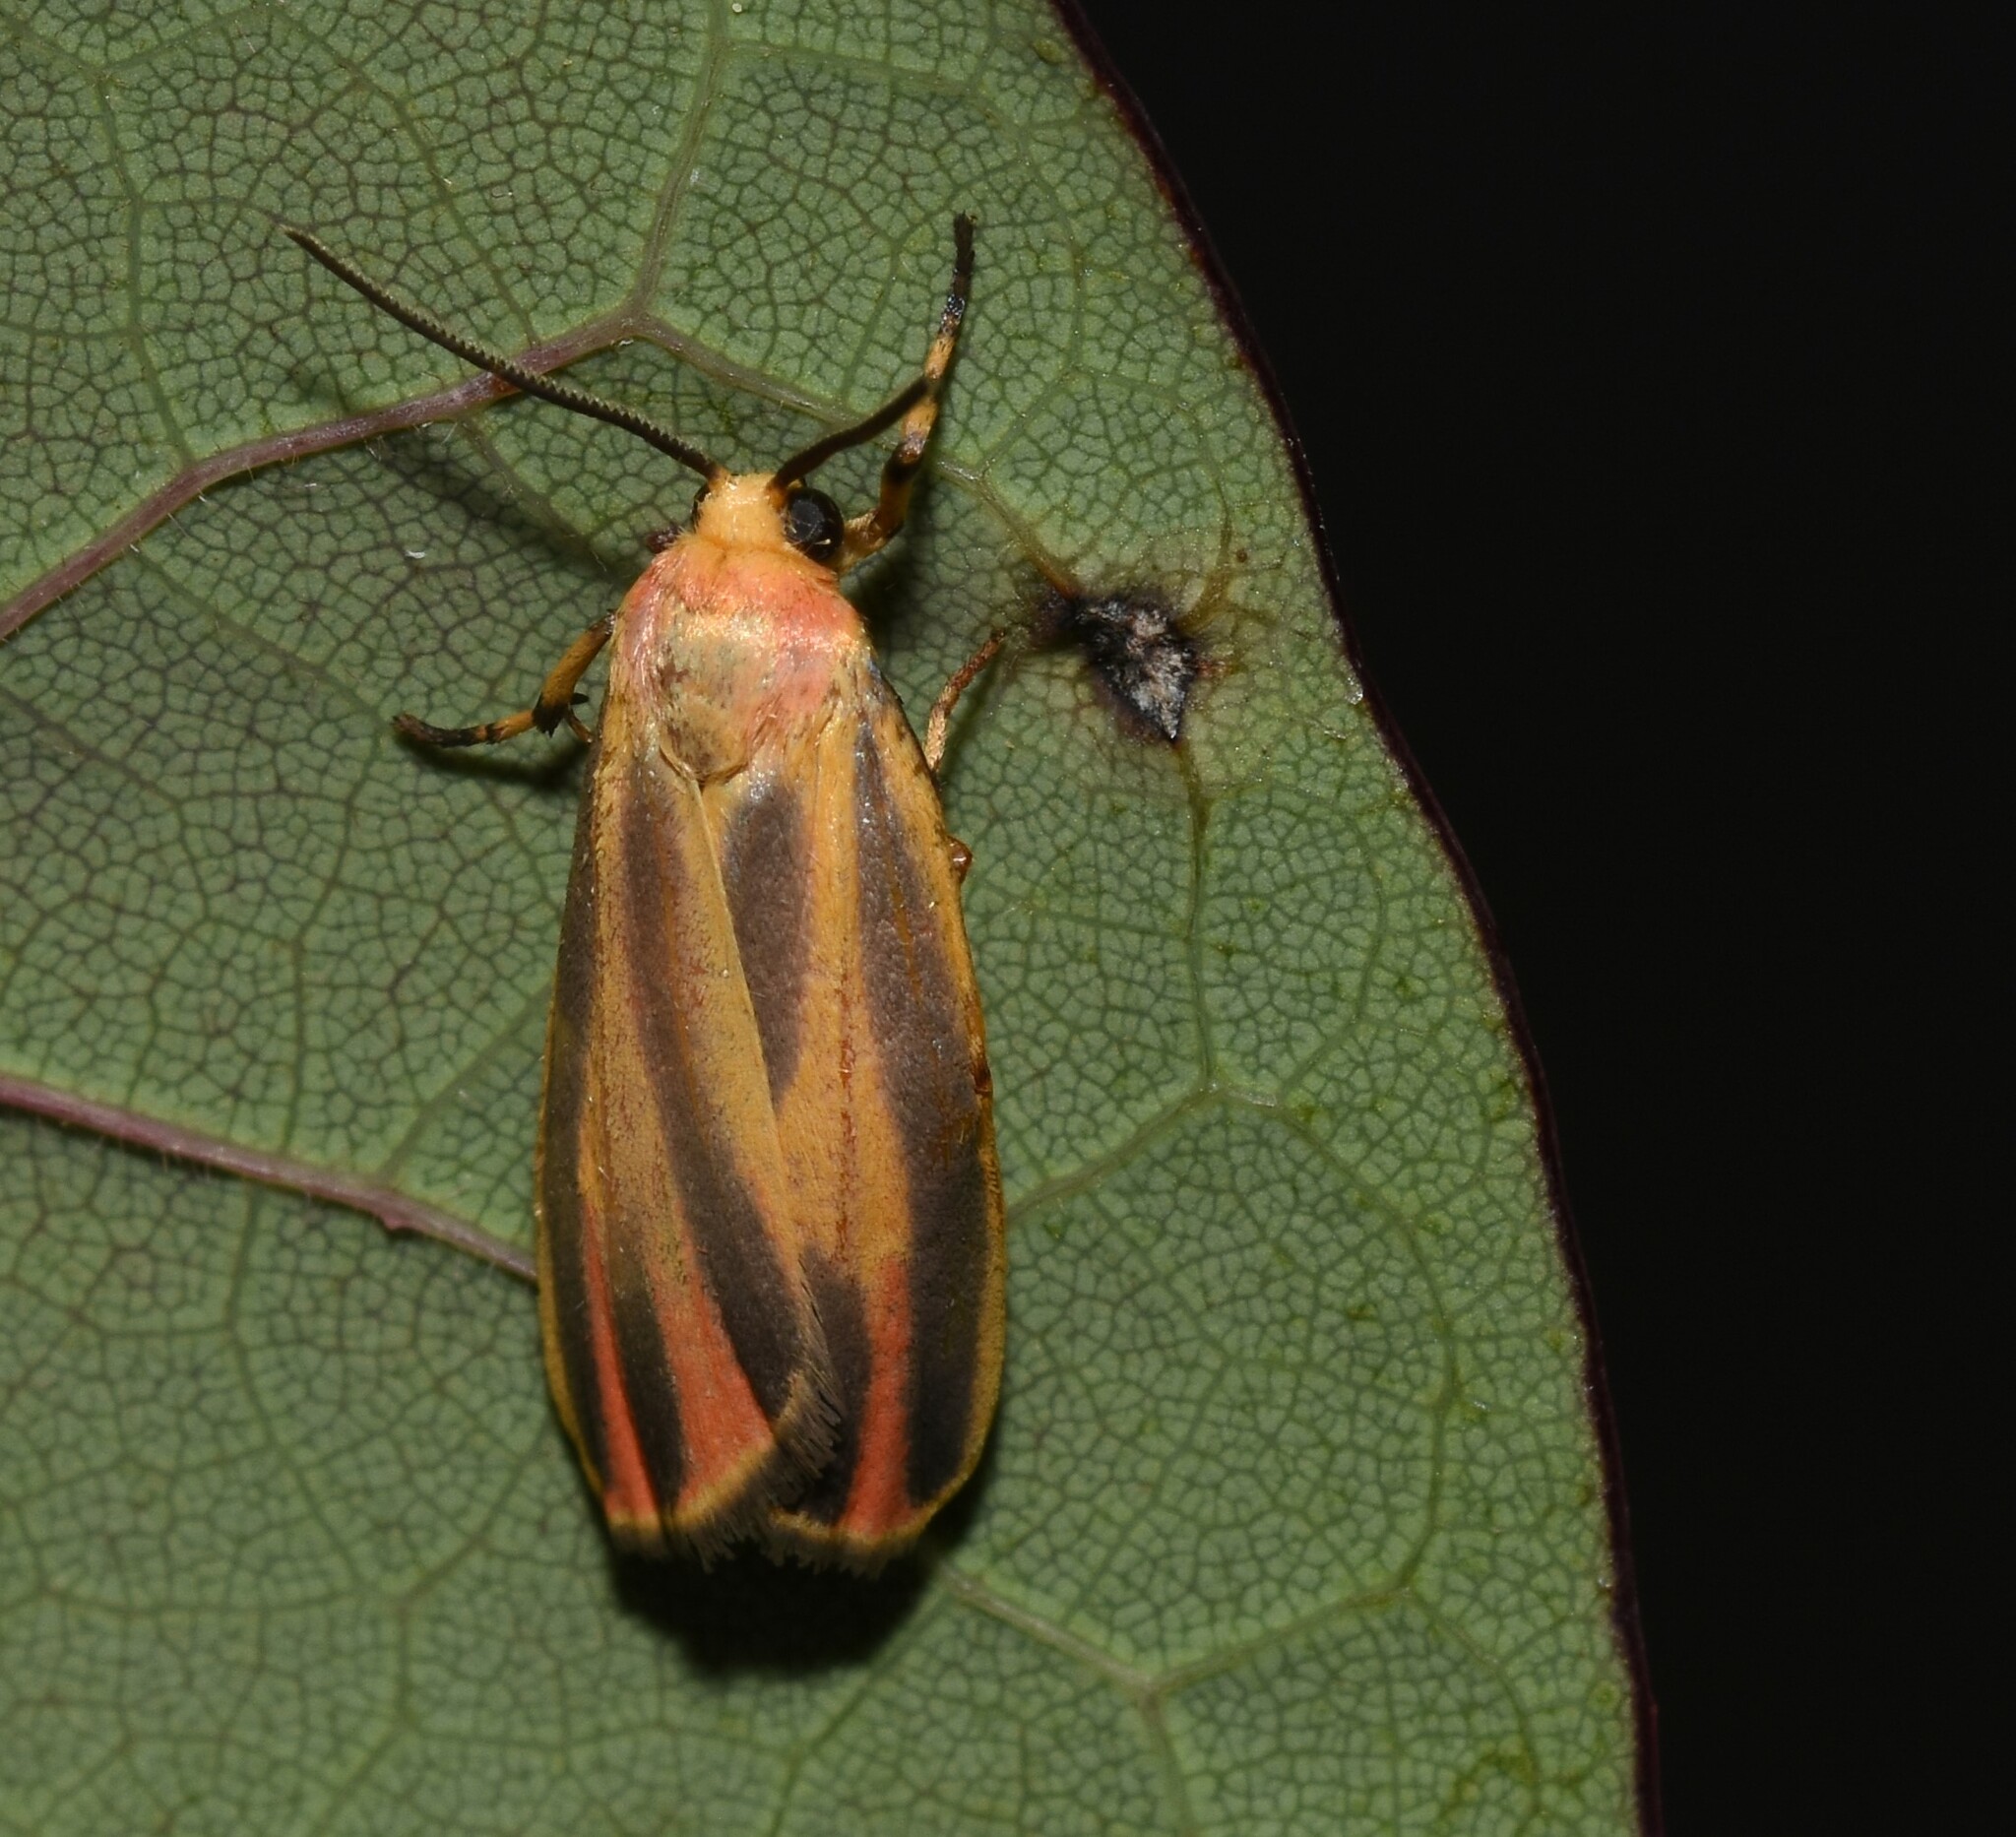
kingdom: Animalia
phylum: Arthropoda
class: Insecta
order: Lepidoptera
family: Erebidae
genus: Hypoprepia
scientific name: Hypoprepia fucosa
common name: Painted lichen moth
